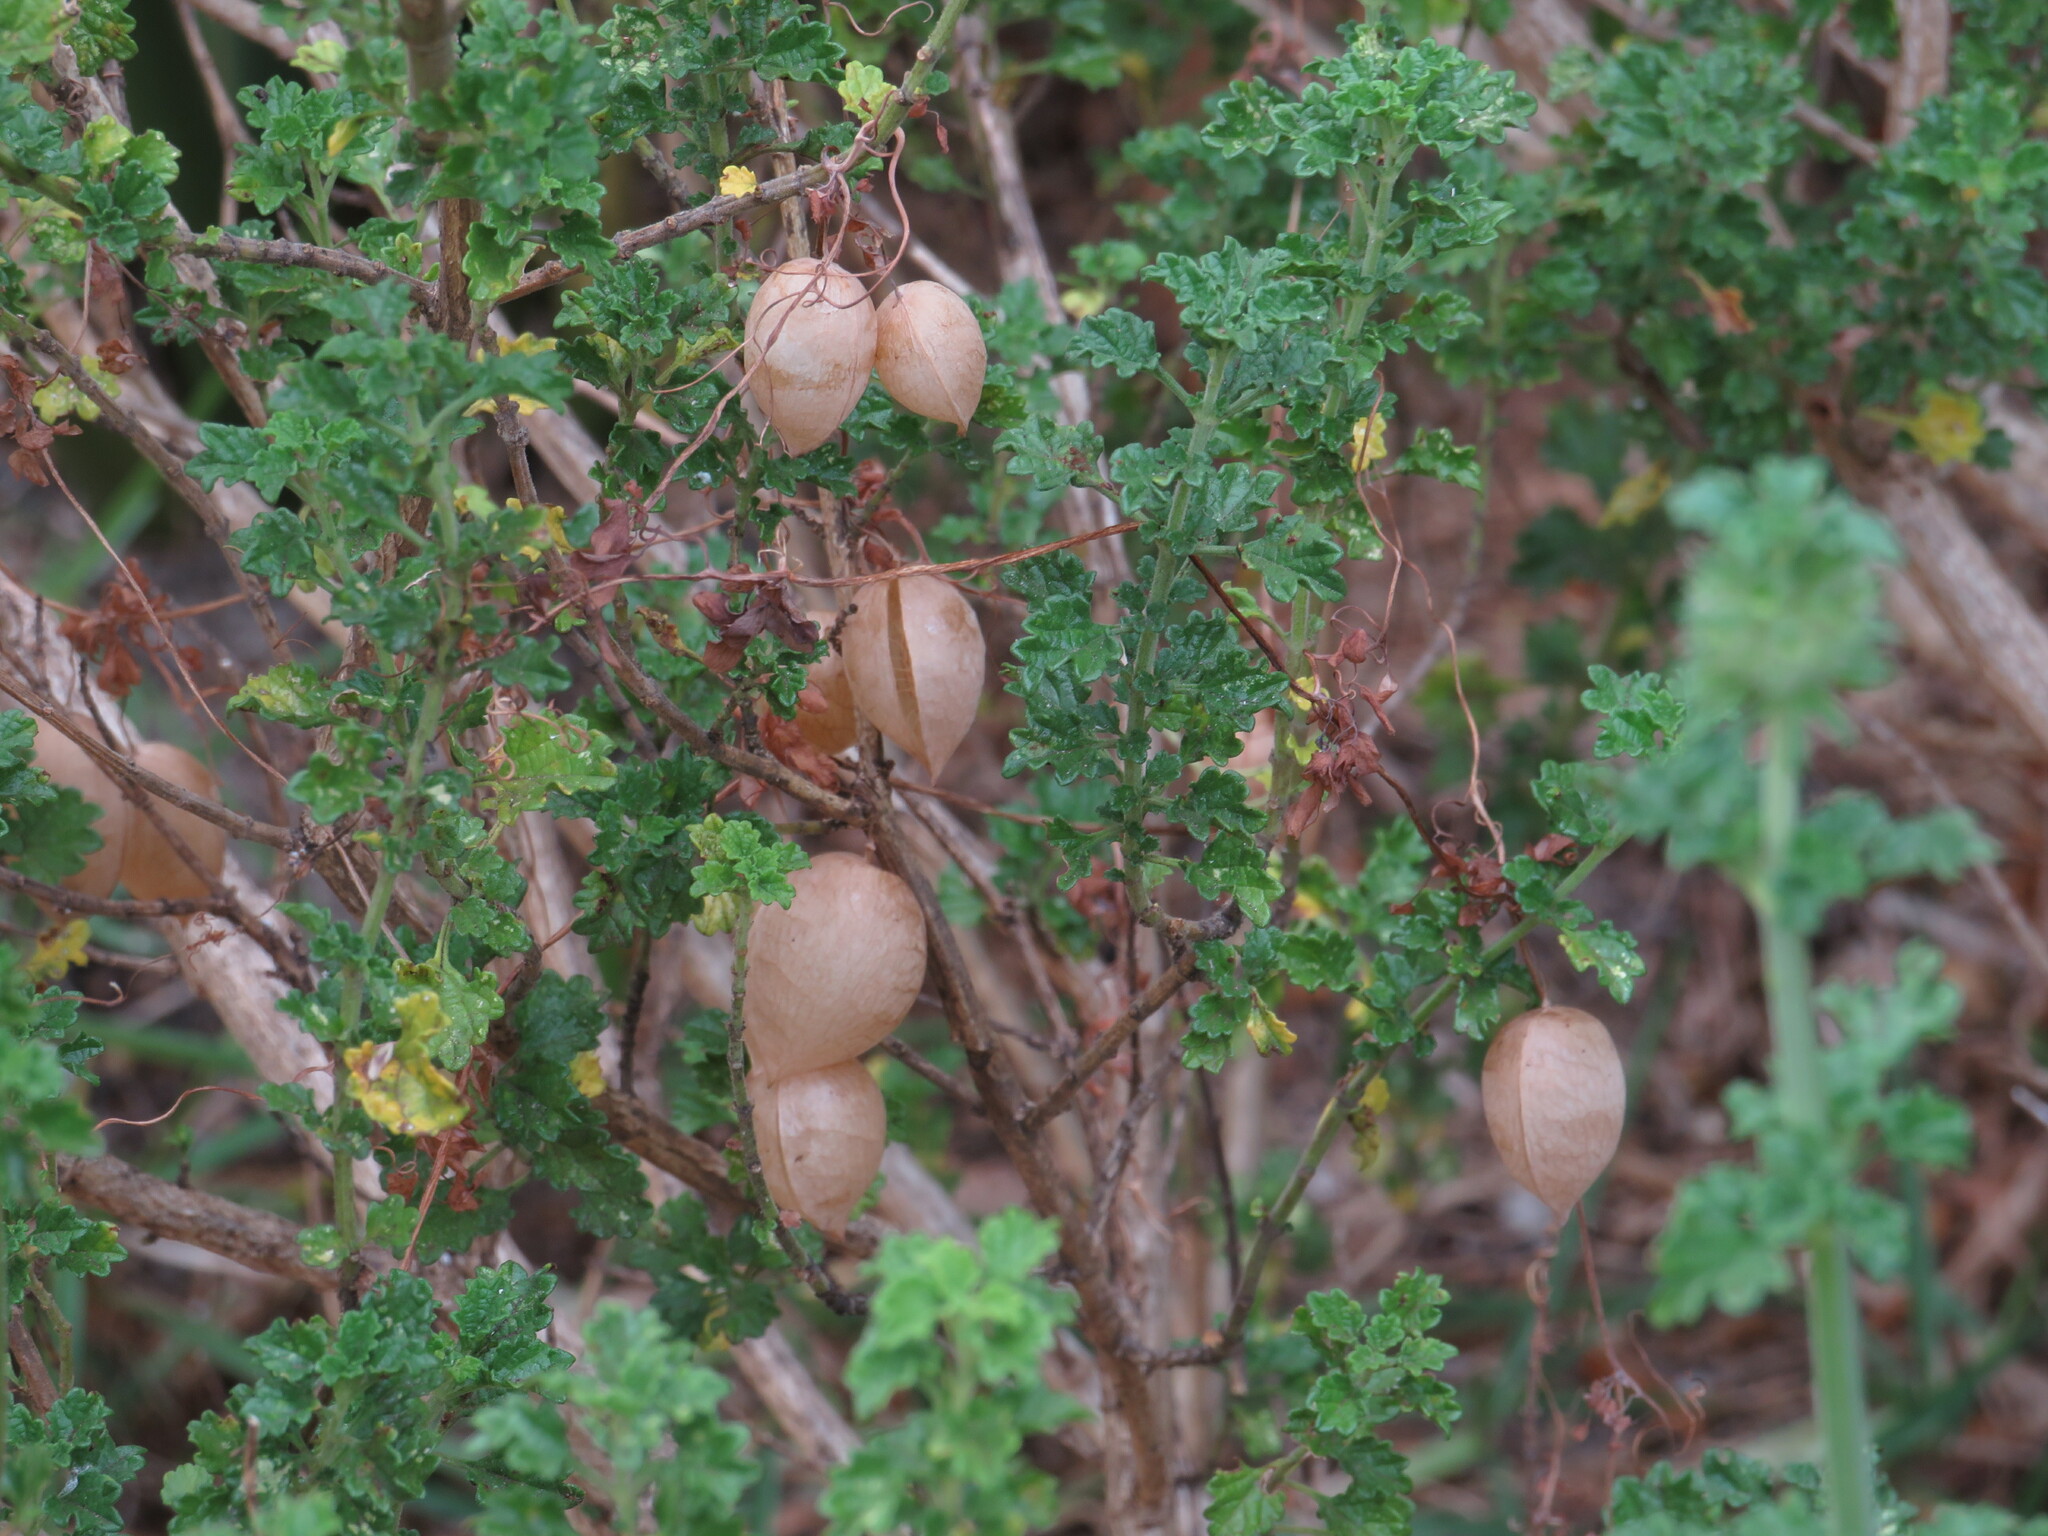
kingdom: Plantae
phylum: Tracheophyta
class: Magnoliopsida
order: Ranunculales
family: Papaveraceae
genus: Cysticapnos
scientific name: Cysticapnos vesicaria
